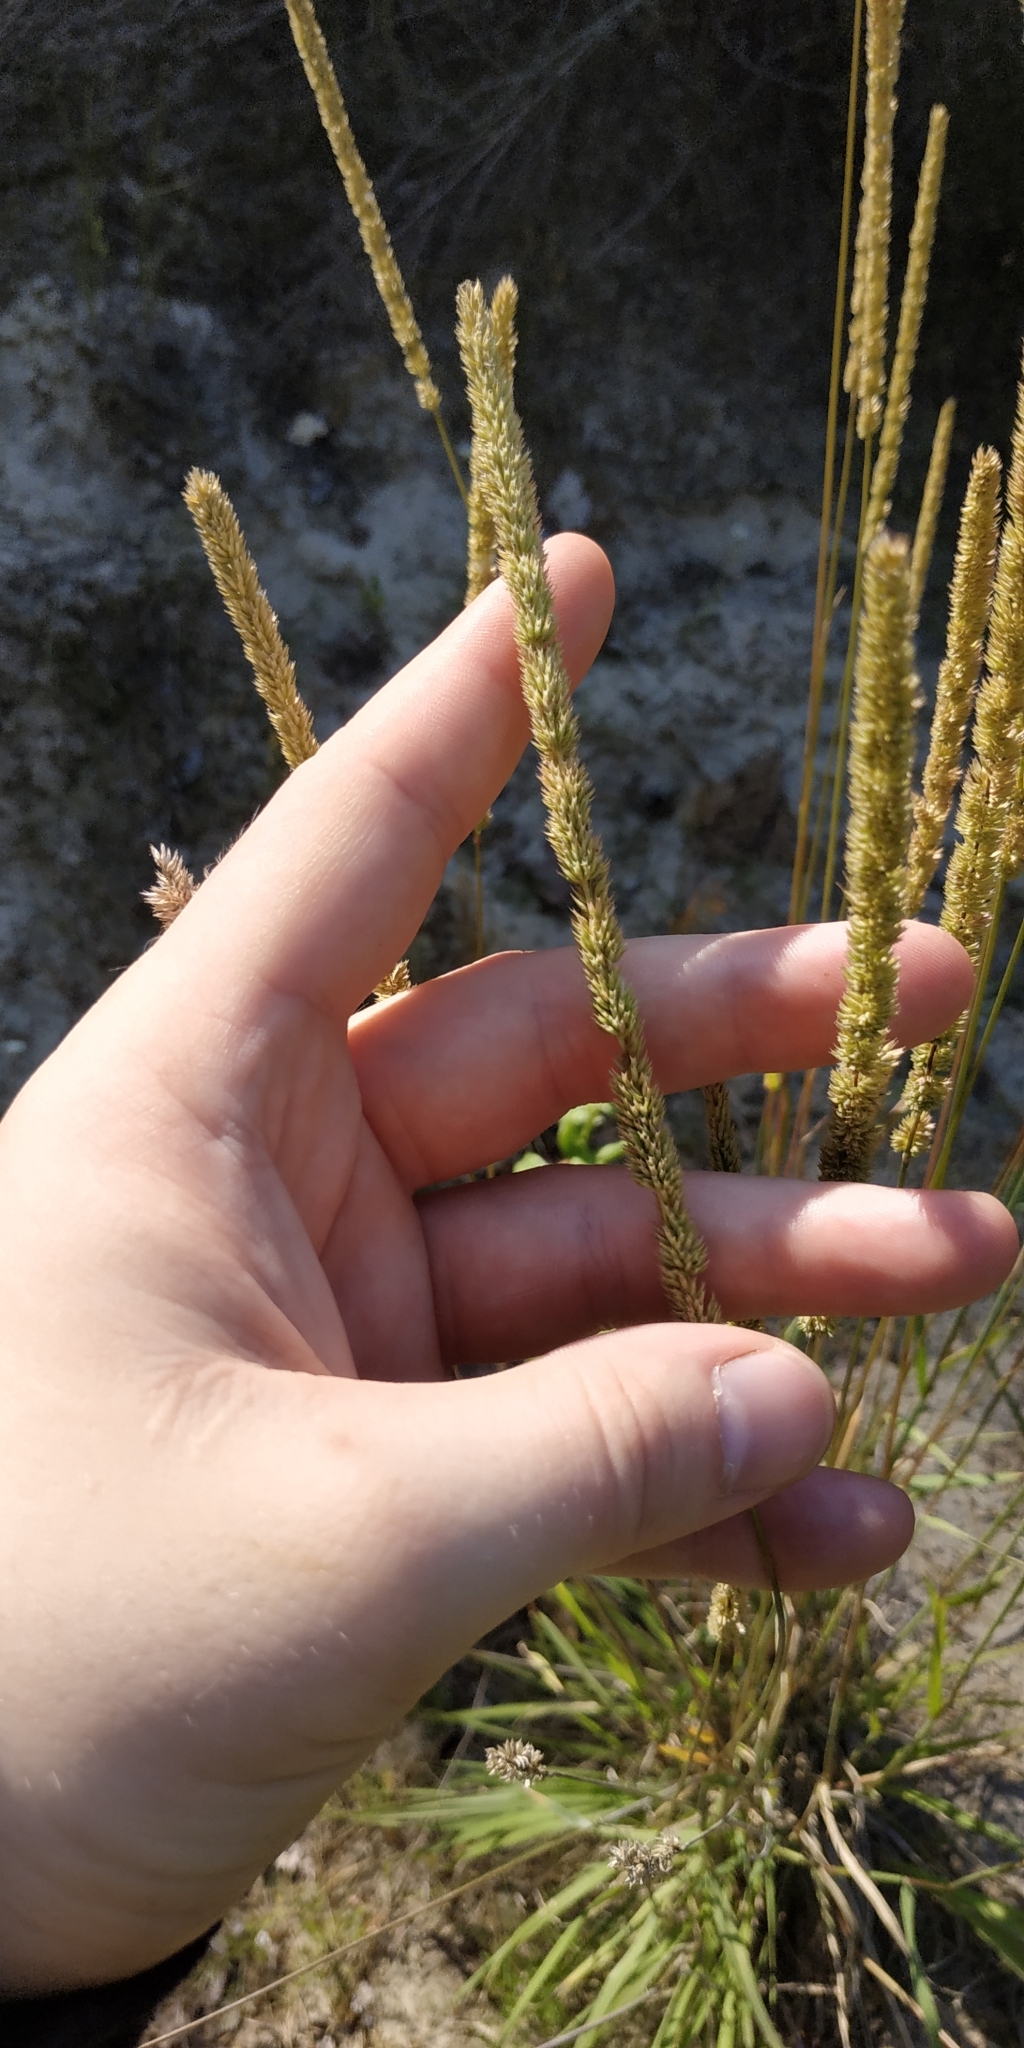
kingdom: Plantae
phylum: Tracheophyta
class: Liliopsida
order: Poales
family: Poaceae
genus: Phleum
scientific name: Phleum phleoides
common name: Purple-stem cat's-tail
